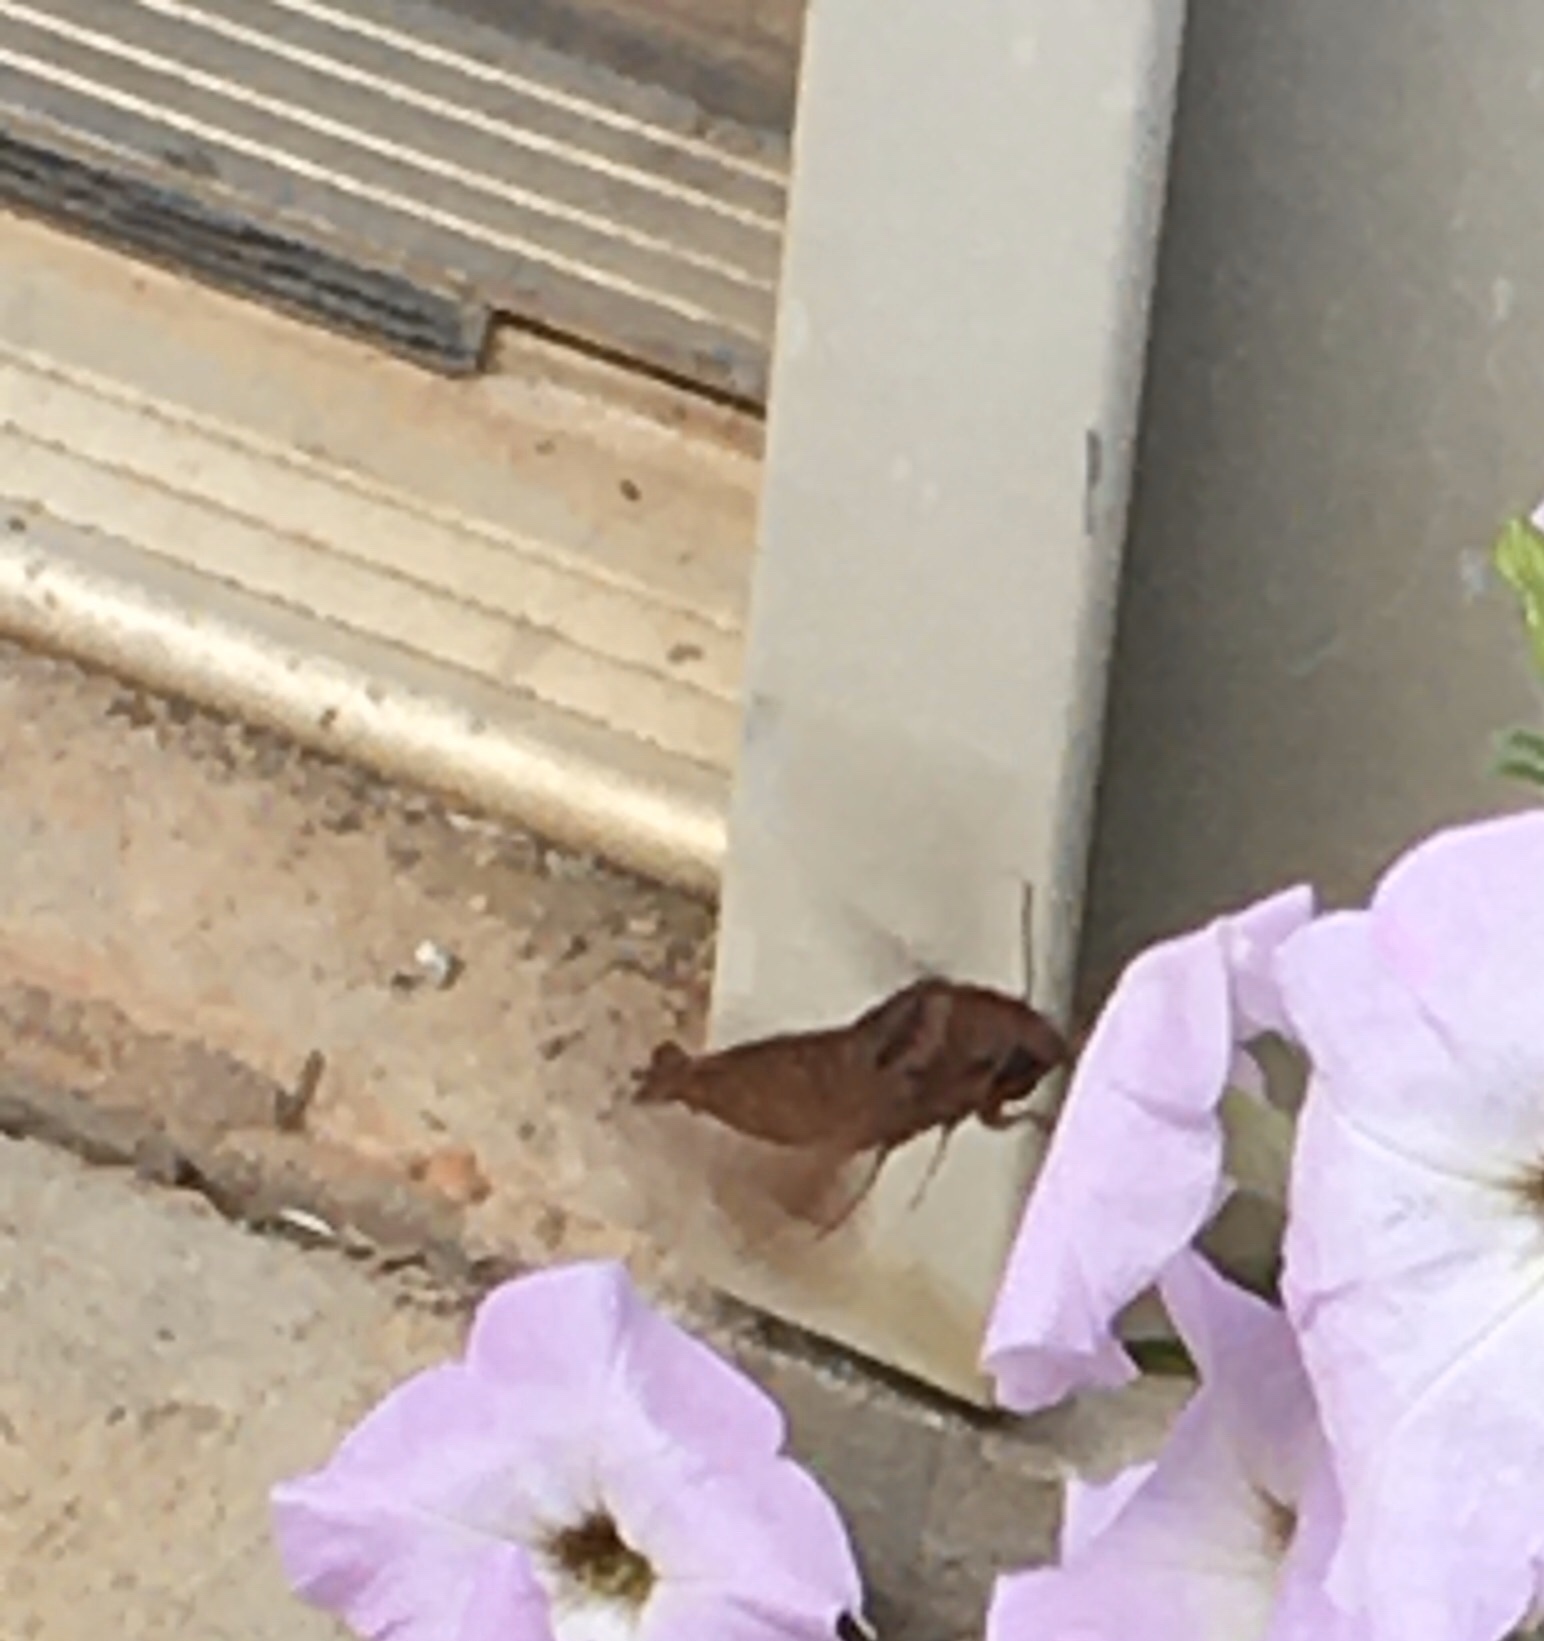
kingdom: Animalia
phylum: Arthropoda
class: Insecta
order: Lepidoptera
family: Sphingidae
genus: Enyo
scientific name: Enyo lugubris
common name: Mournful sphinx
